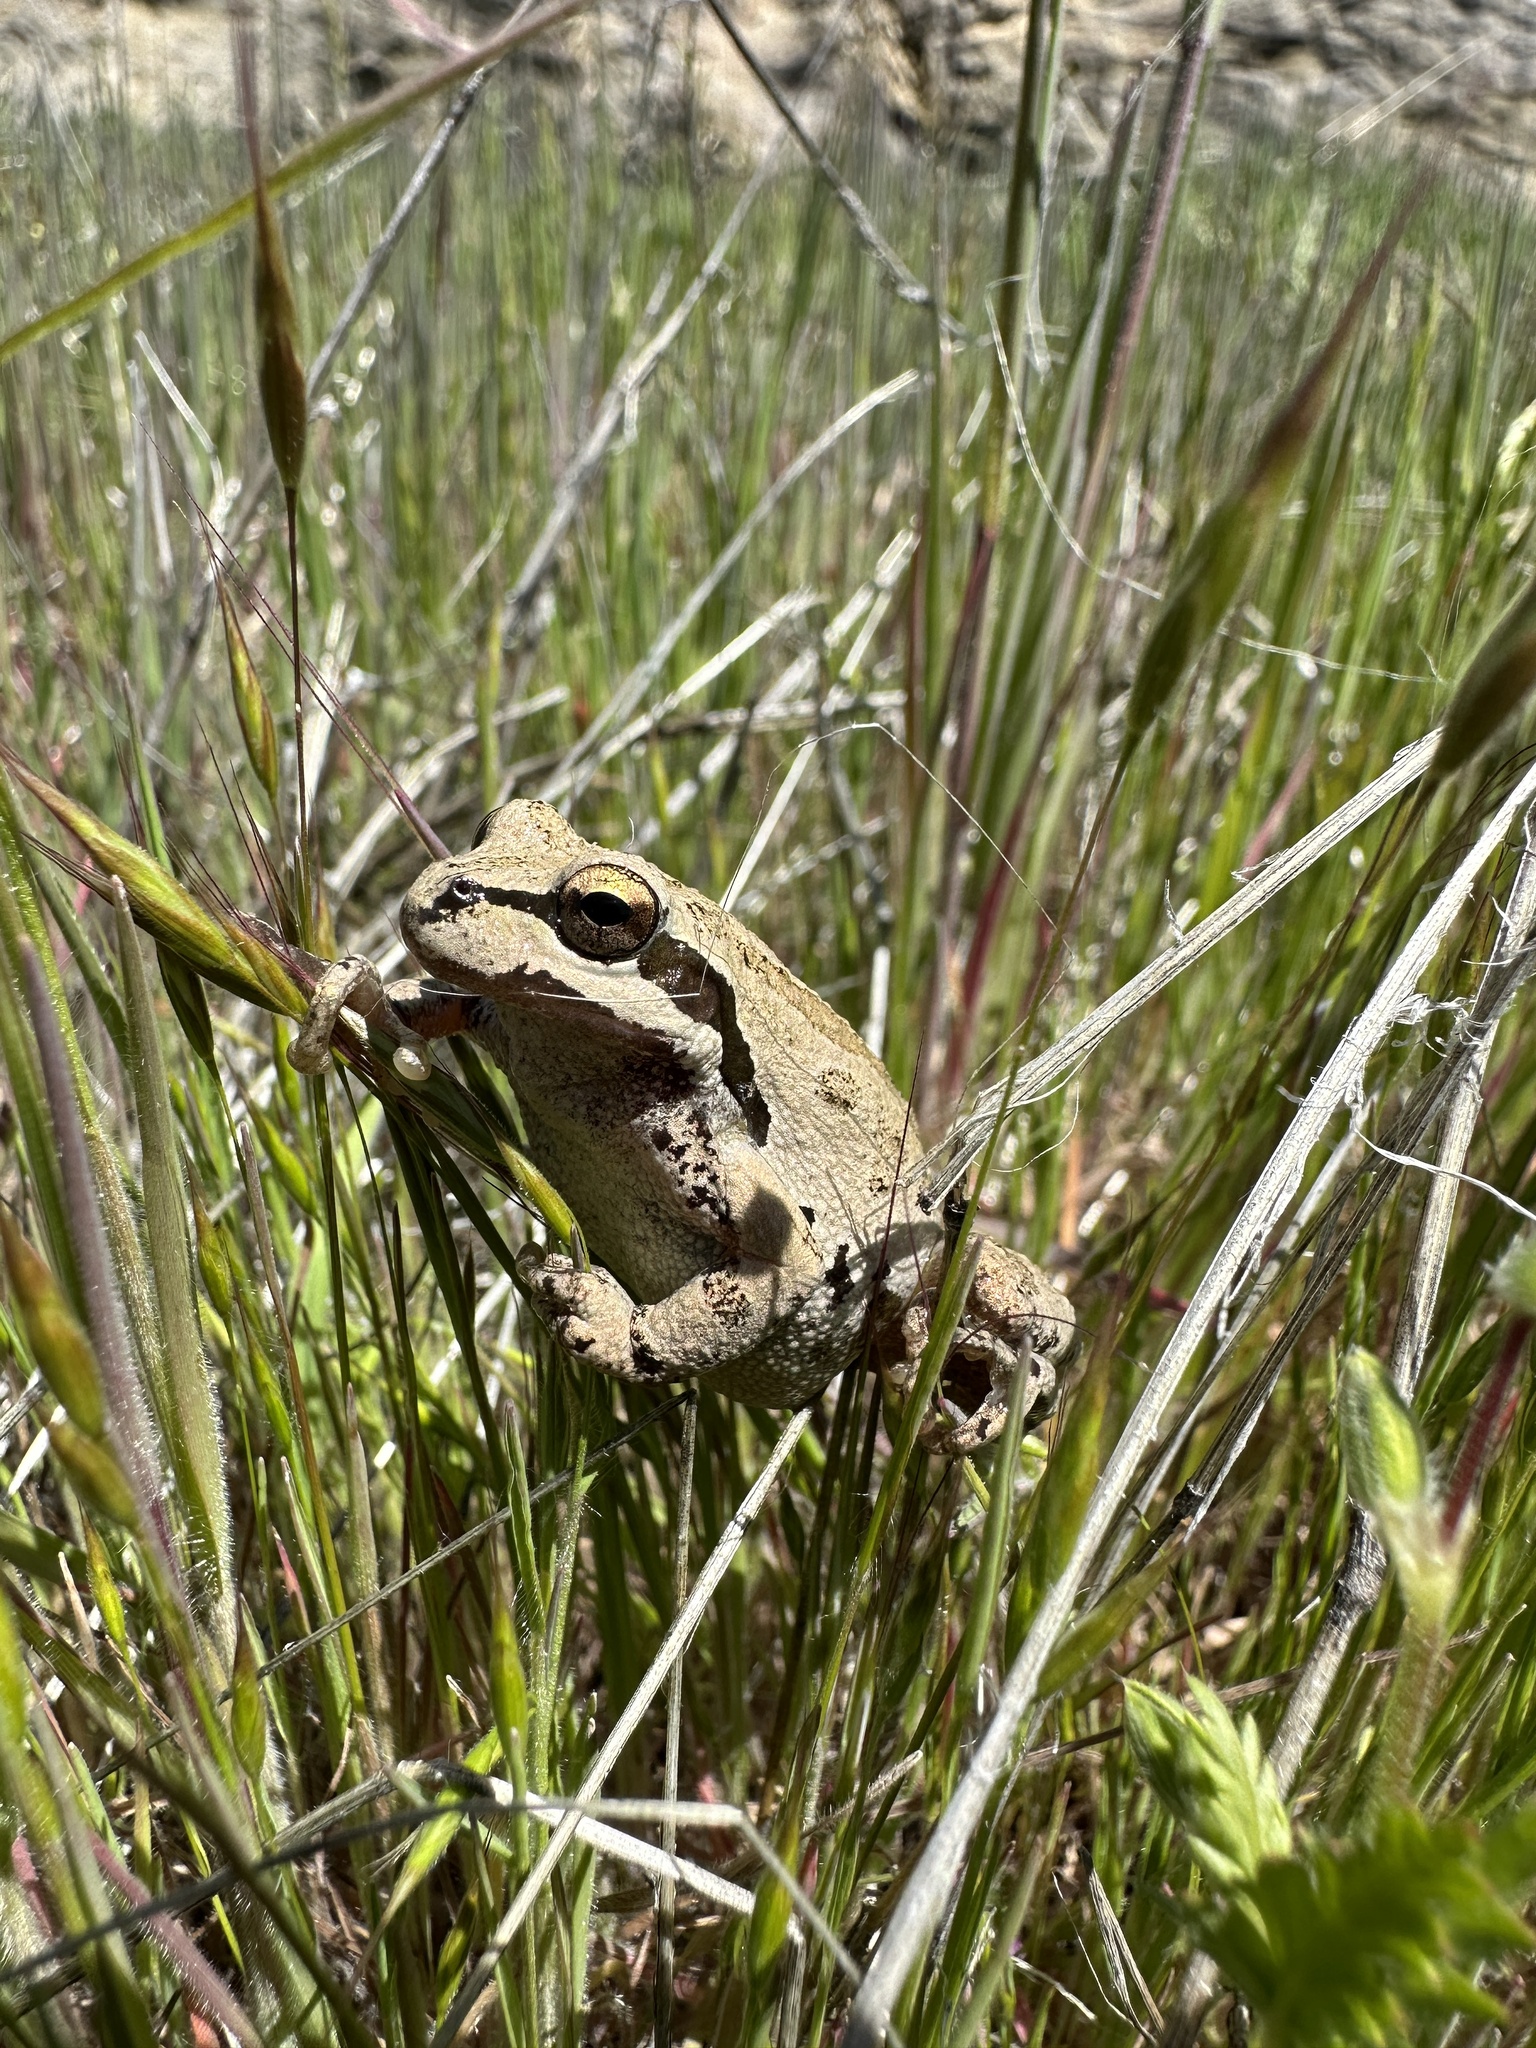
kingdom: Animalia
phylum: Chordata
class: Amphibia
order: Anura
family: Hylidae
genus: Pseudacris
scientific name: Pseudacris regilla
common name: Pacific chorus frog
